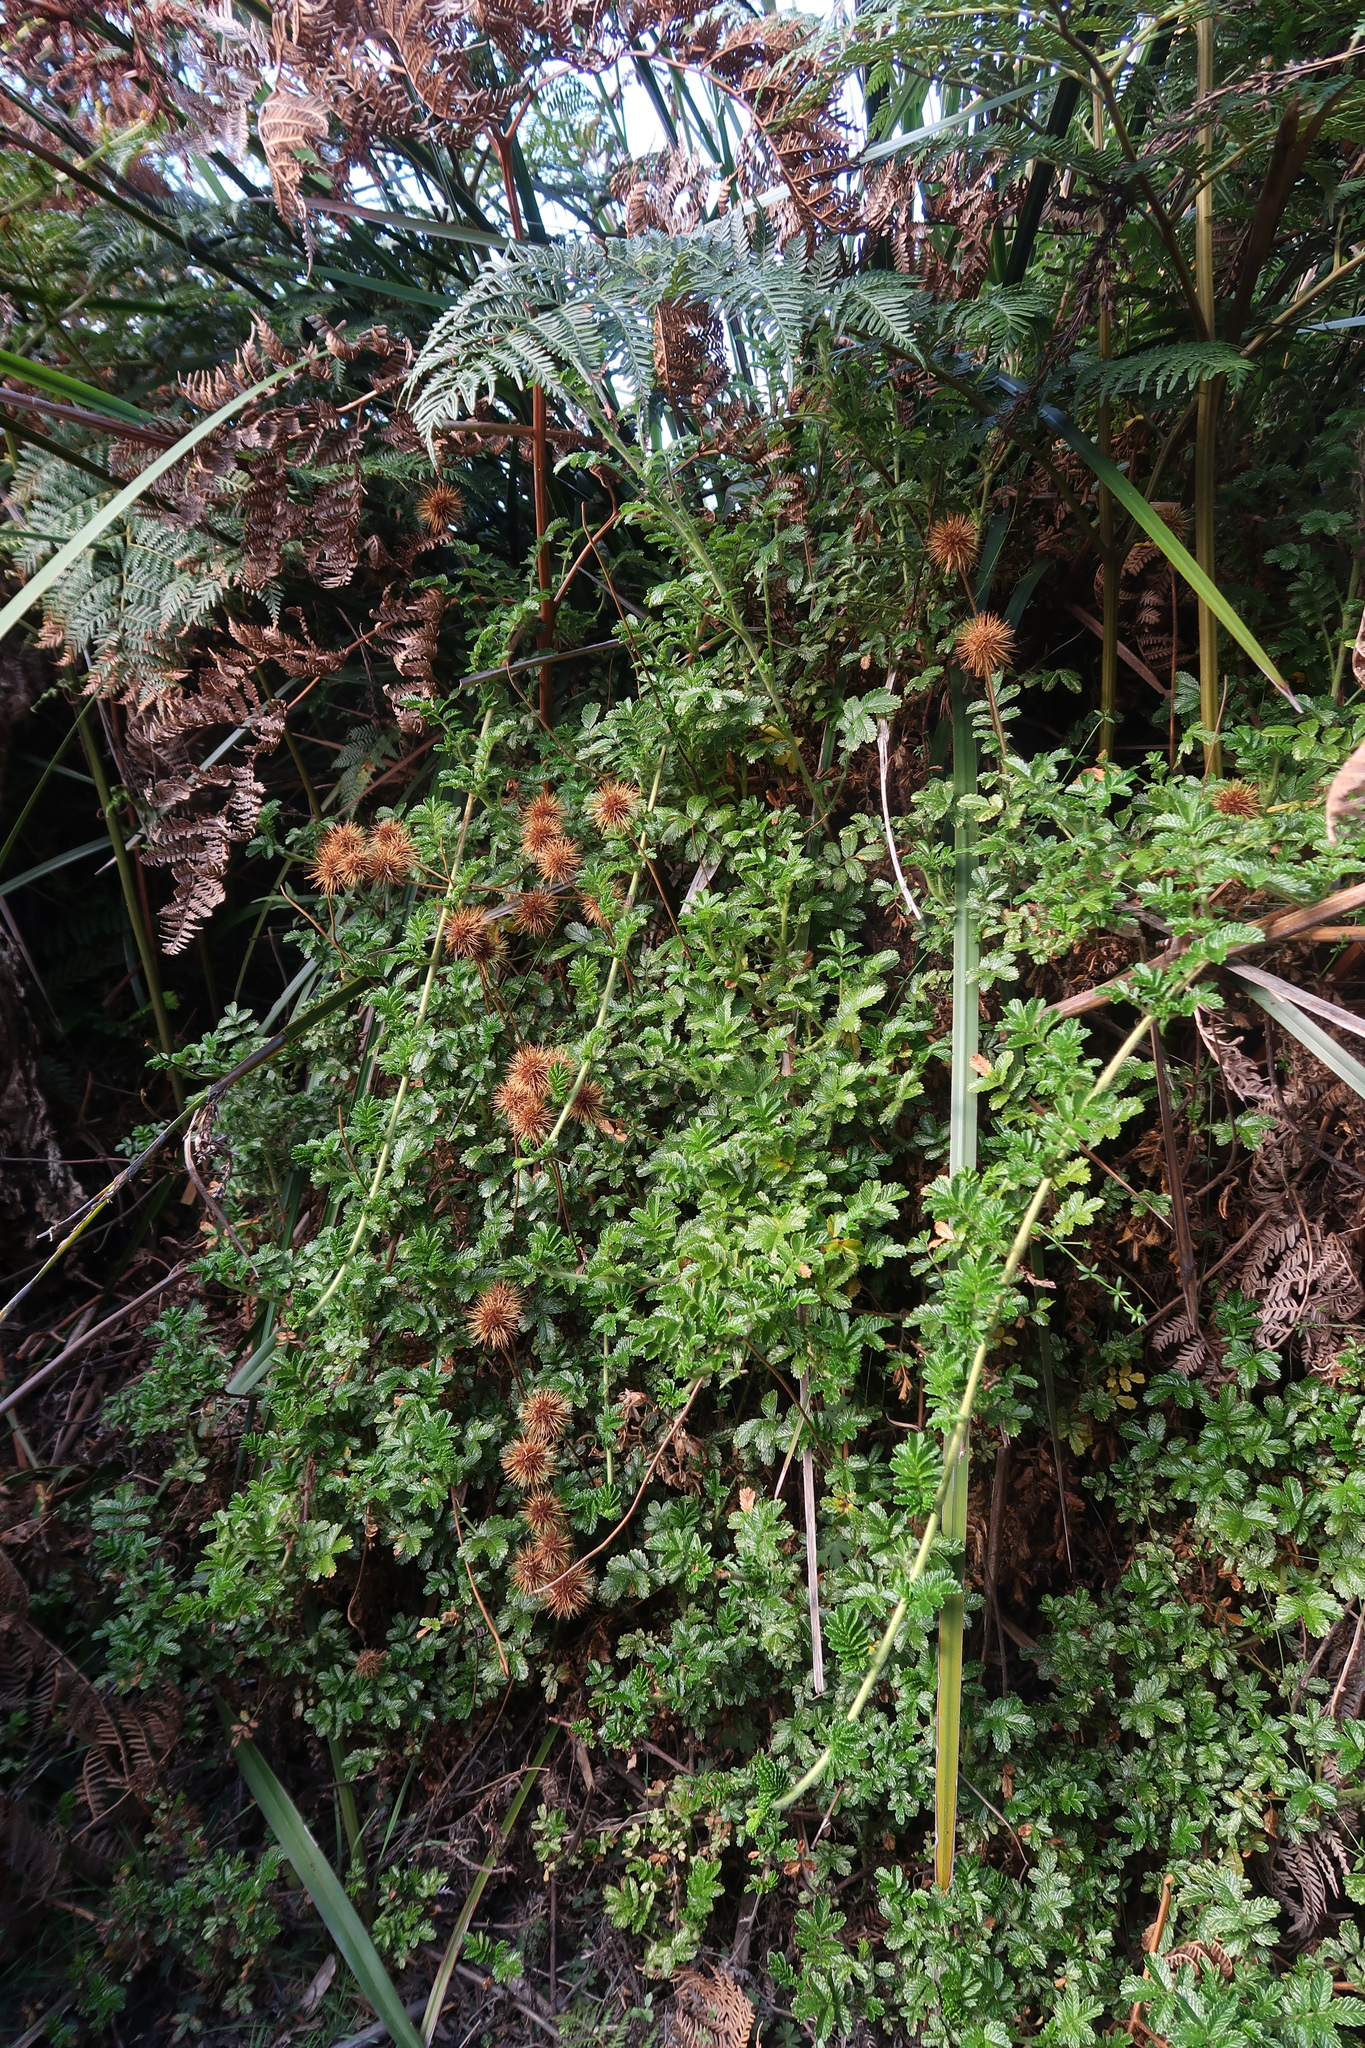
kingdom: Plantae
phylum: Tracheophyta
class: Magnoliopsida
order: Rosales
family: Rosaceae
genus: Acaena
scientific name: Acaena novae-zelandiae
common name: Pirri-pirri-bur
